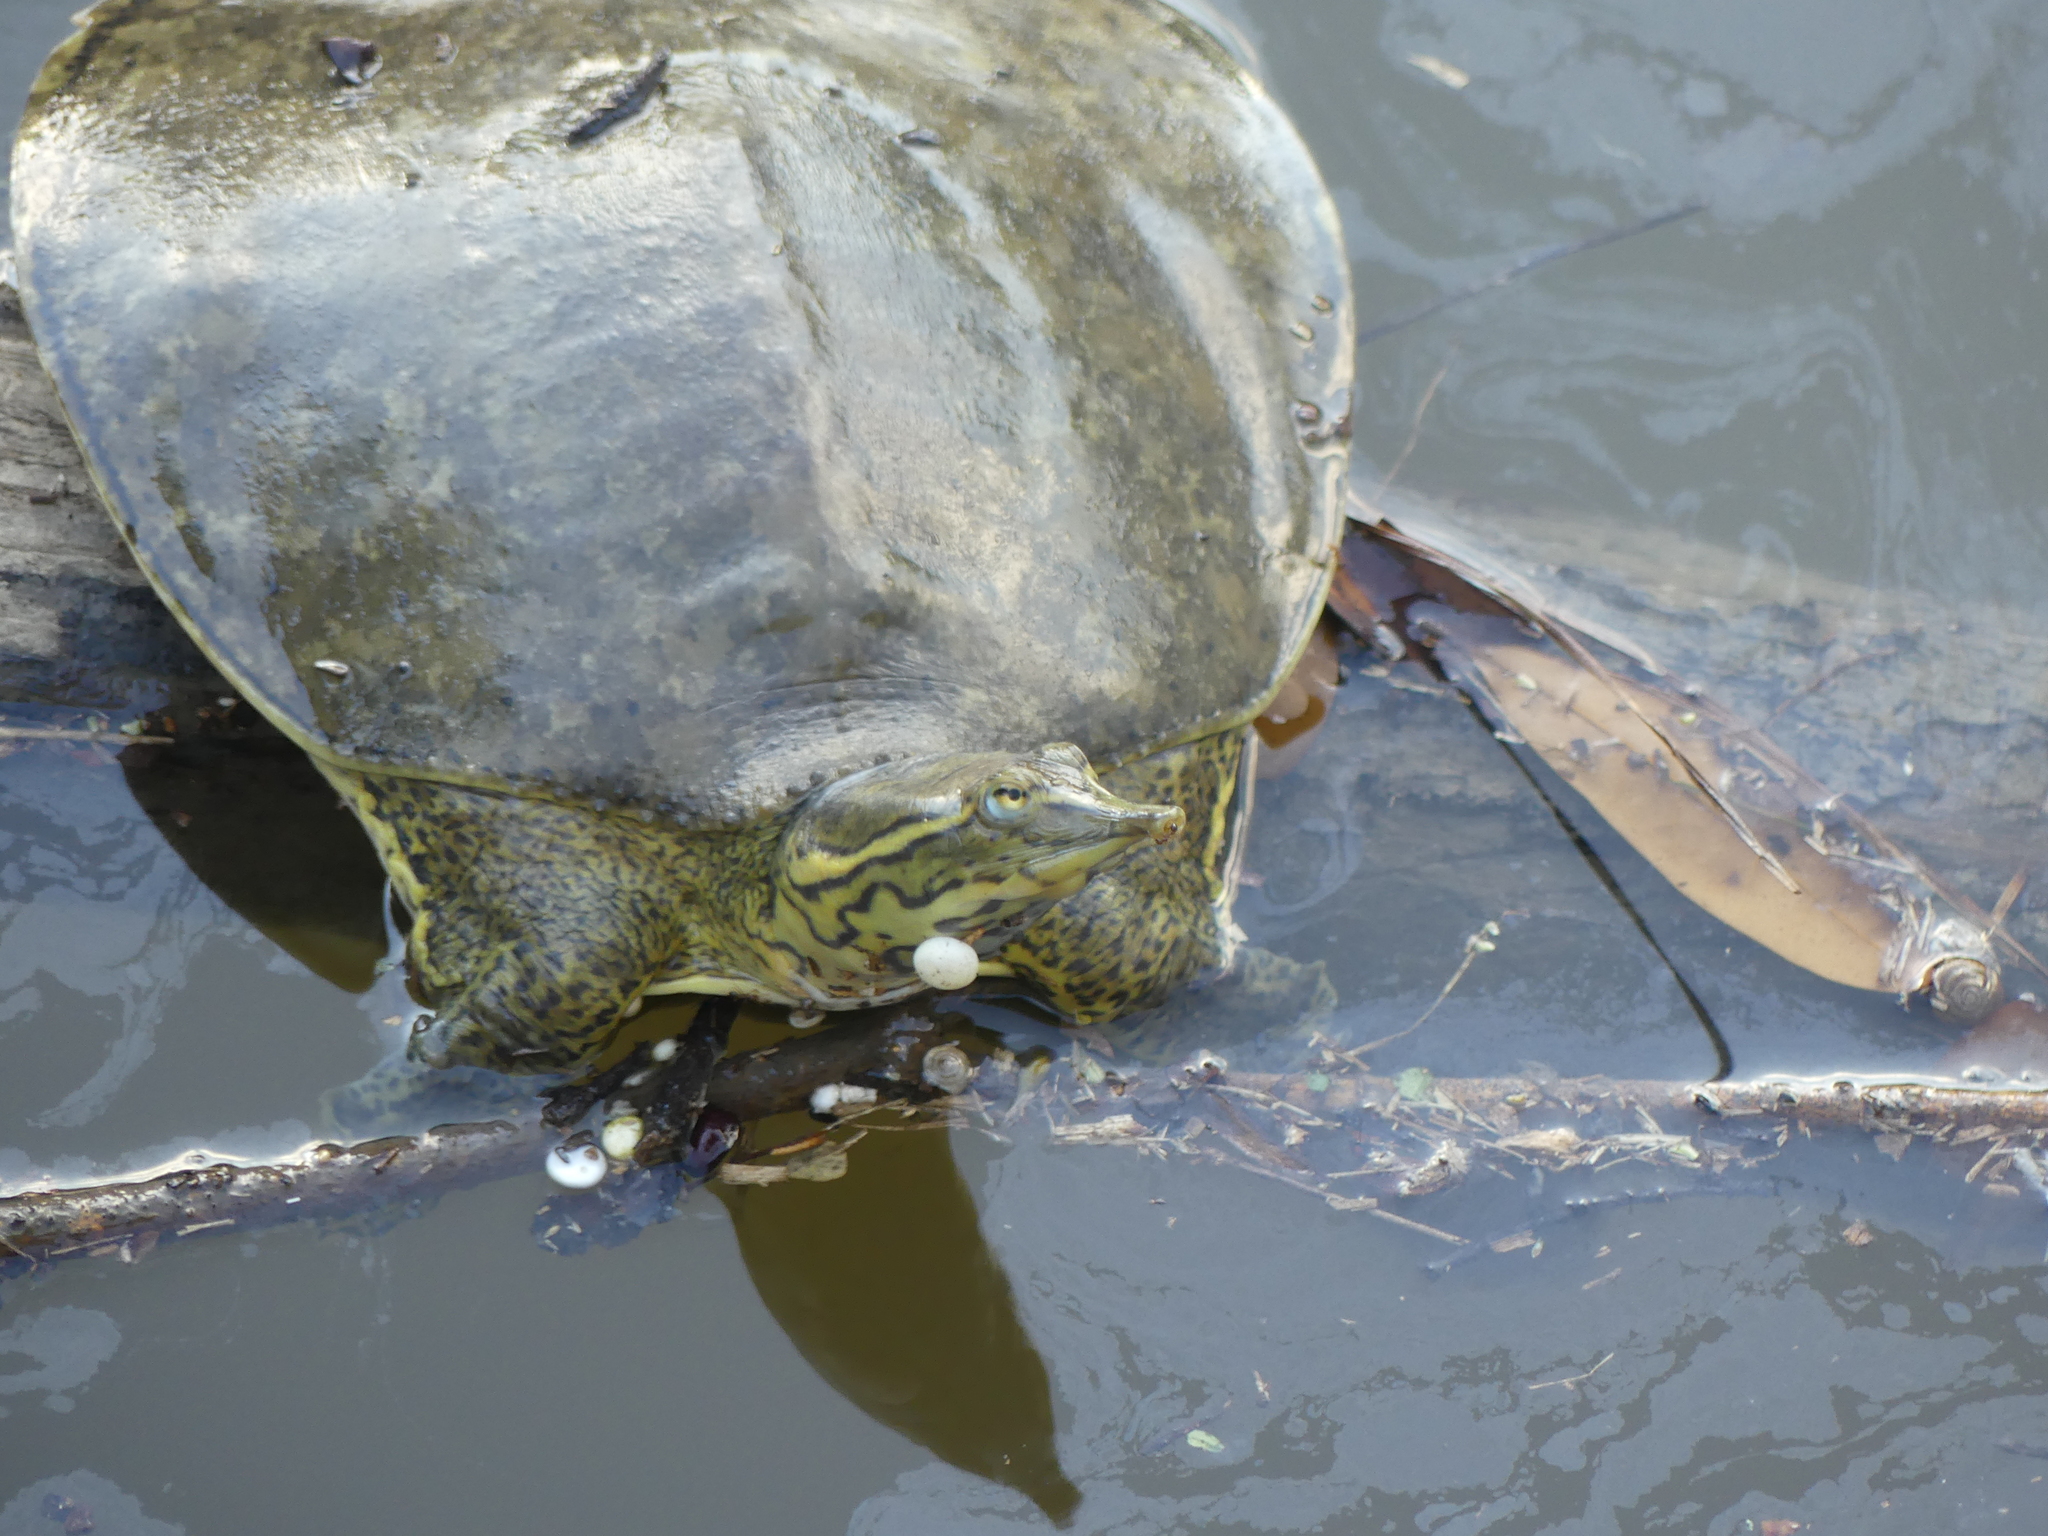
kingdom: Animalia
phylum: Chordata
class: Testudines
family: Trionychidae
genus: Apalone
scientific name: Apalone spinifera
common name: Spiny softshell turtle
